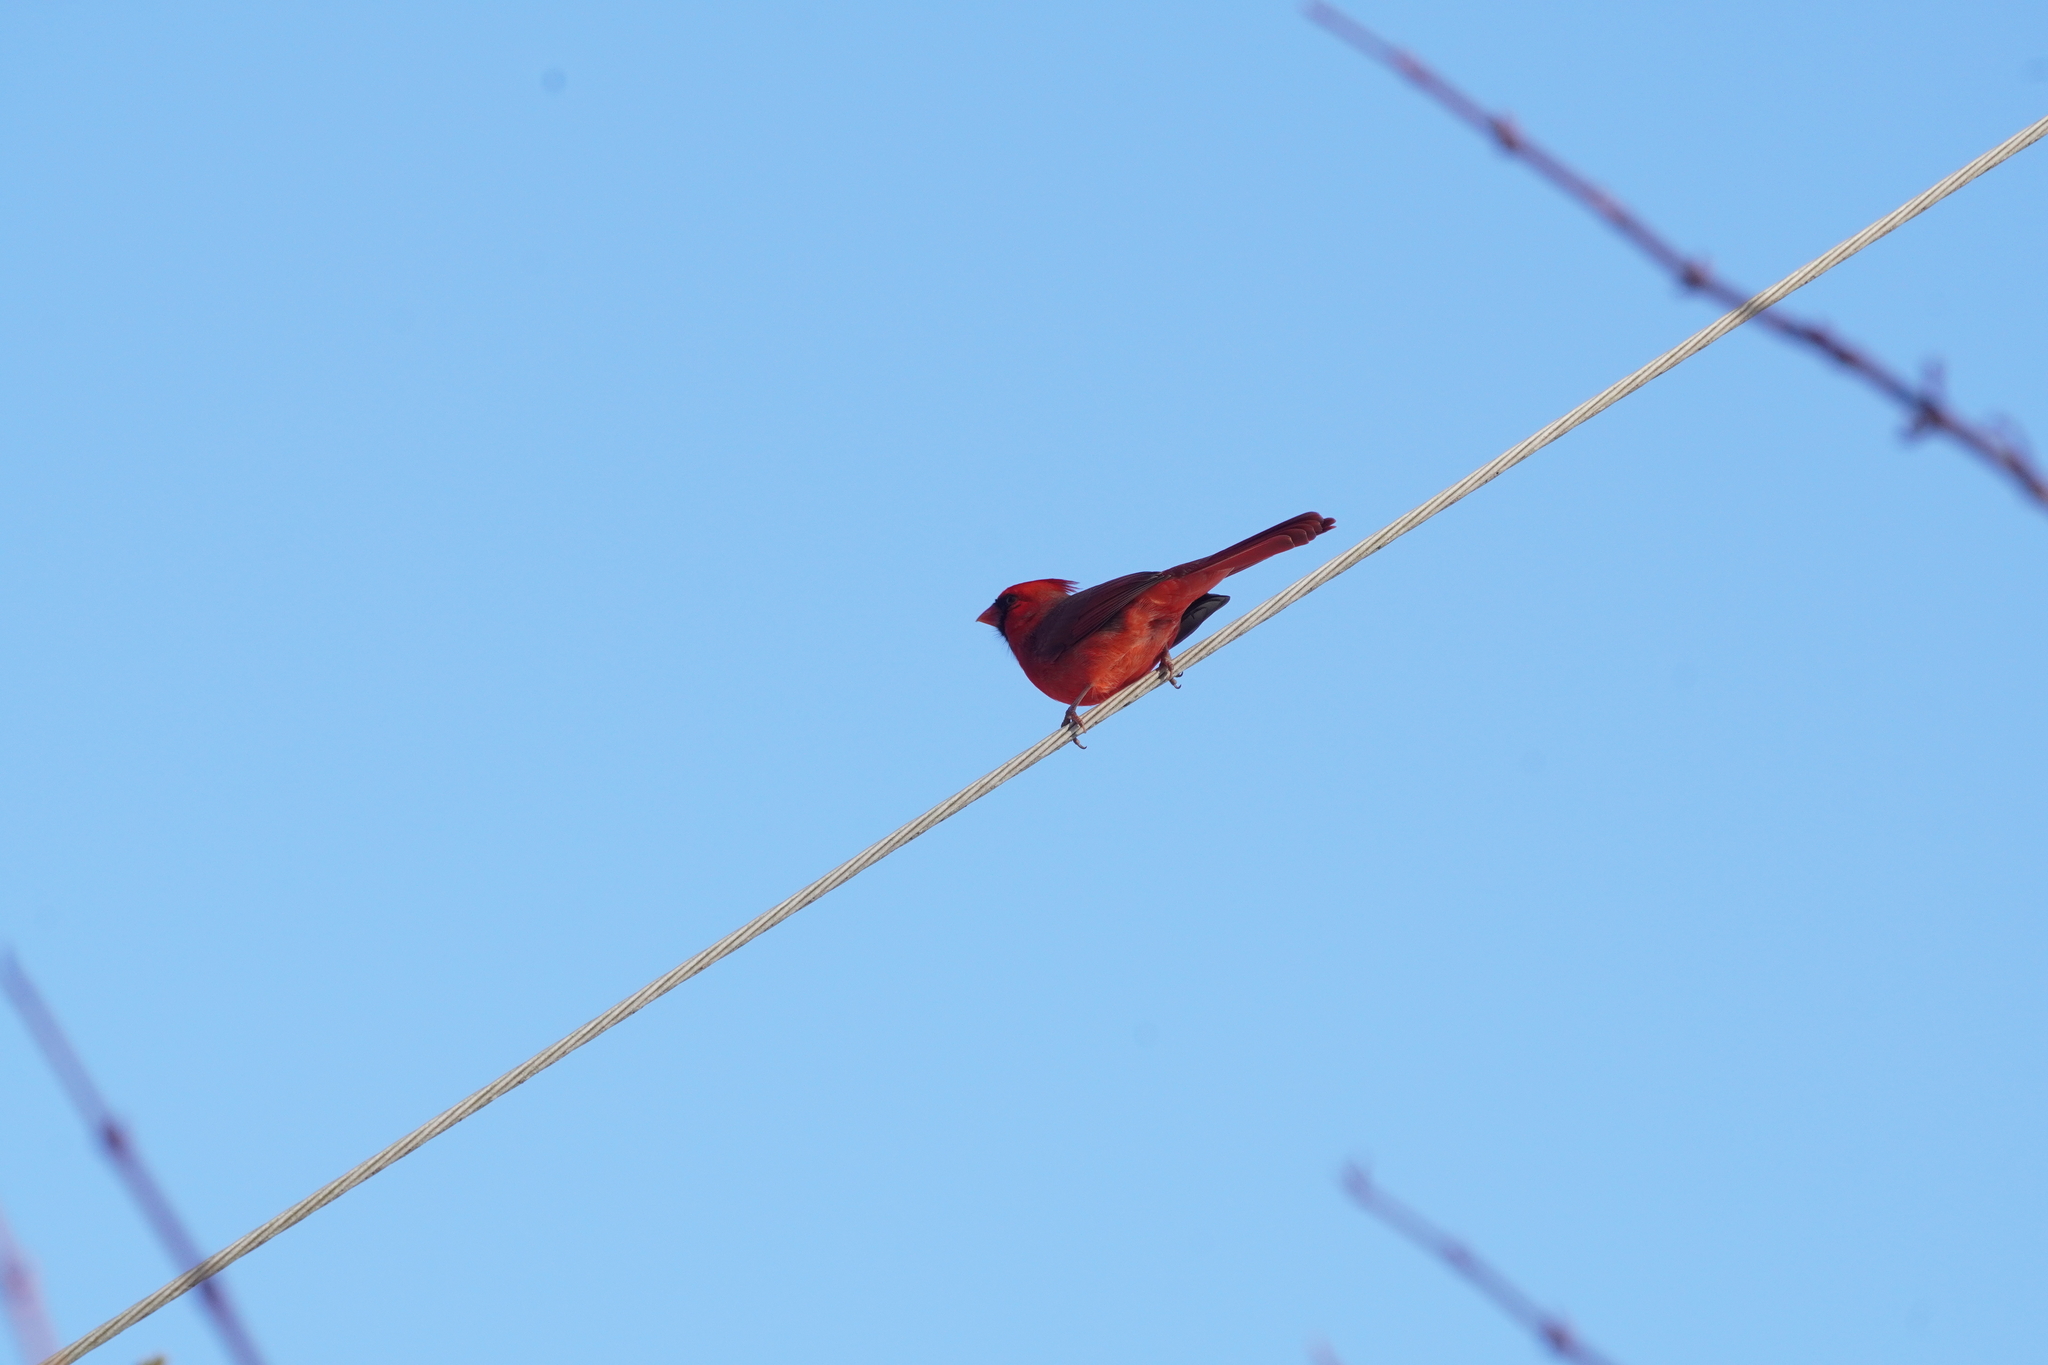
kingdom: Animalia
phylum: Chordata
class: Aves
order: Passeriformes
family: Cardinalidae
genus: Cardinalis
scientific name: Cardinalis cardinalis
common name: Northern cardinal
